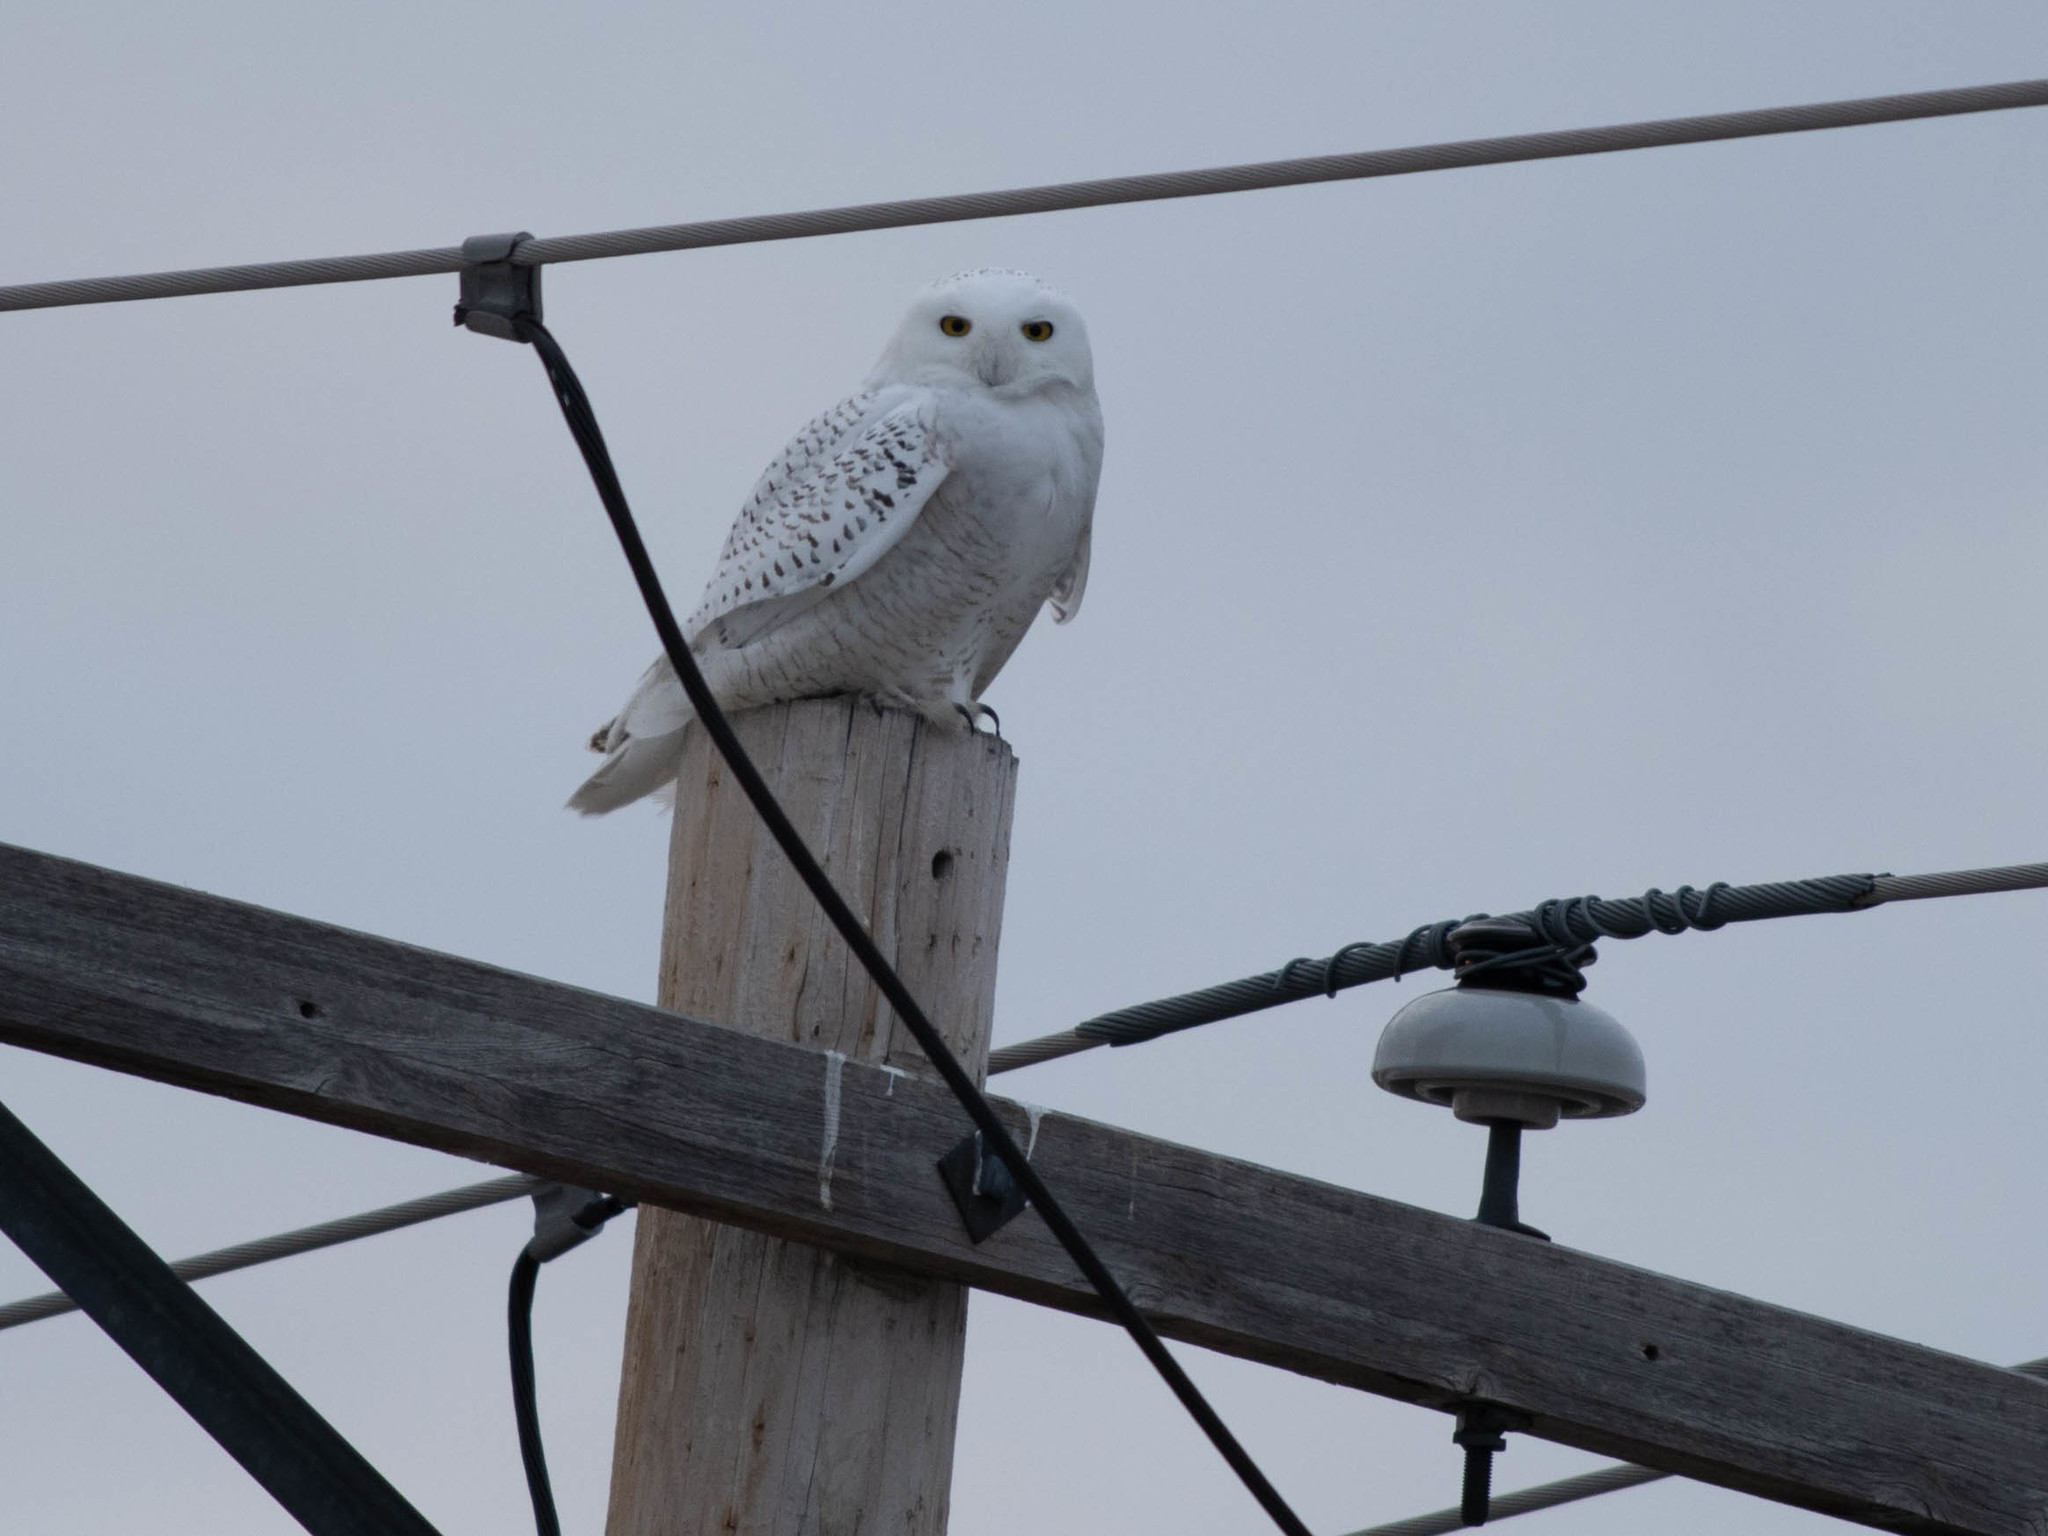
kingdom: Animalia
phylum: Chordata
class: Aves
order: Strigiformes
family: Strigidae
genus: Bubo
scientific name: Bubo scandiacus
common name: Snowy owl
